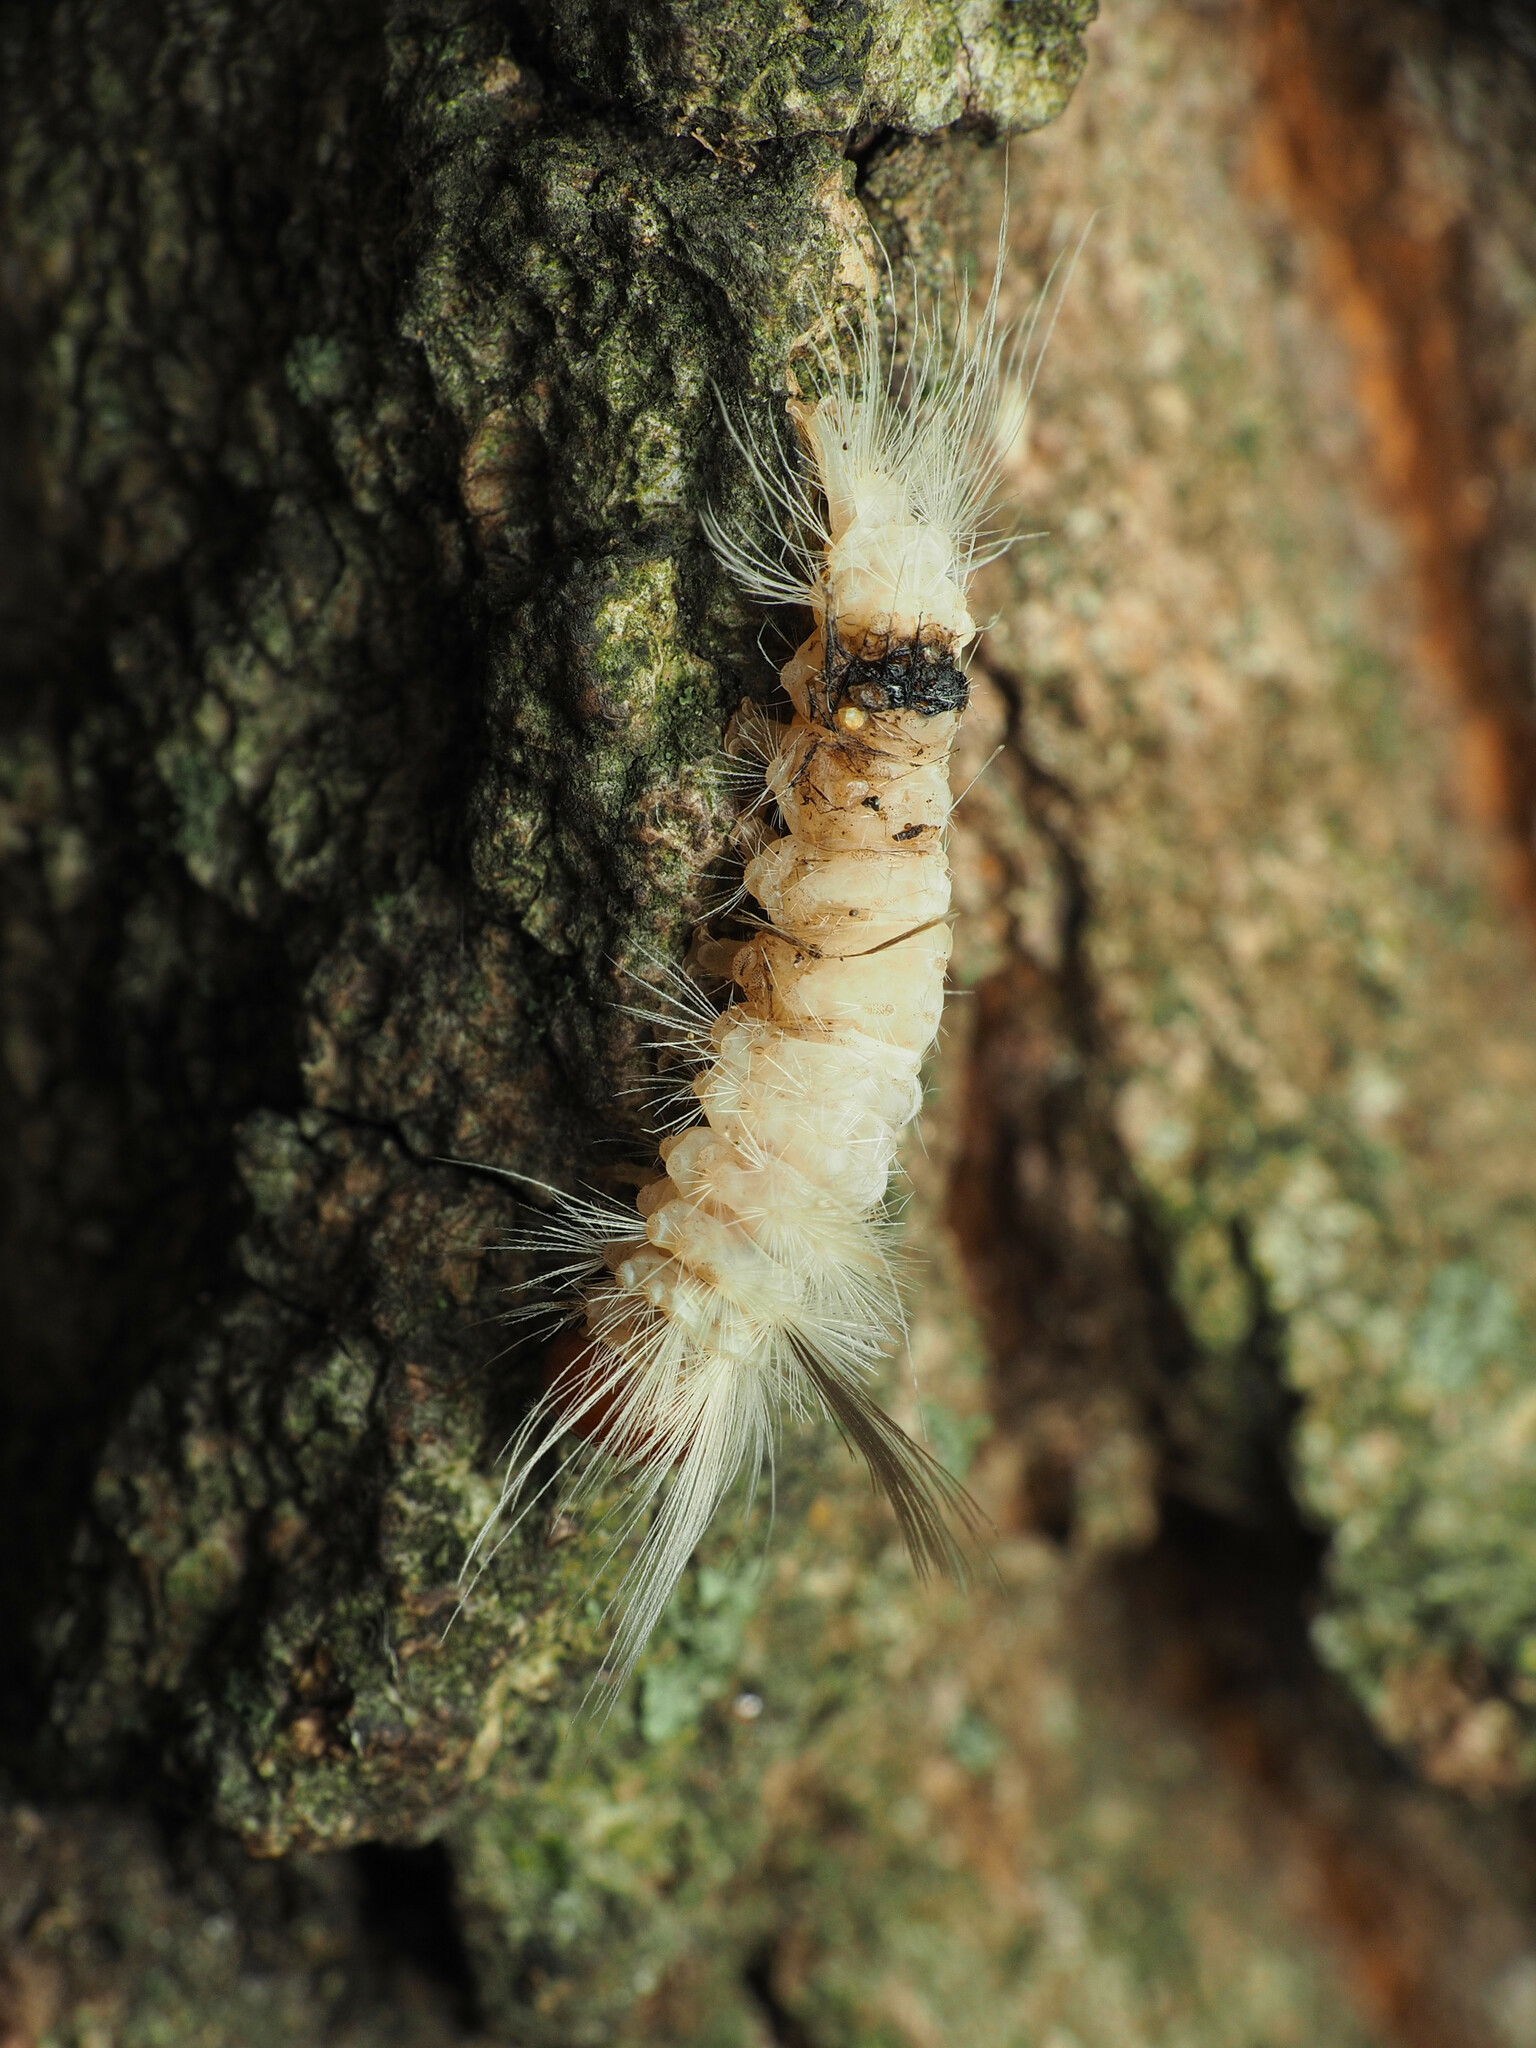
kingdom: Animalia
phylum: Arthropoda
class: Insecta
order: Lepidoptera
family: Erebidae
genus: Halysidota
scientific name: Halysidota tessellaris
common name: Banded tussock moth
